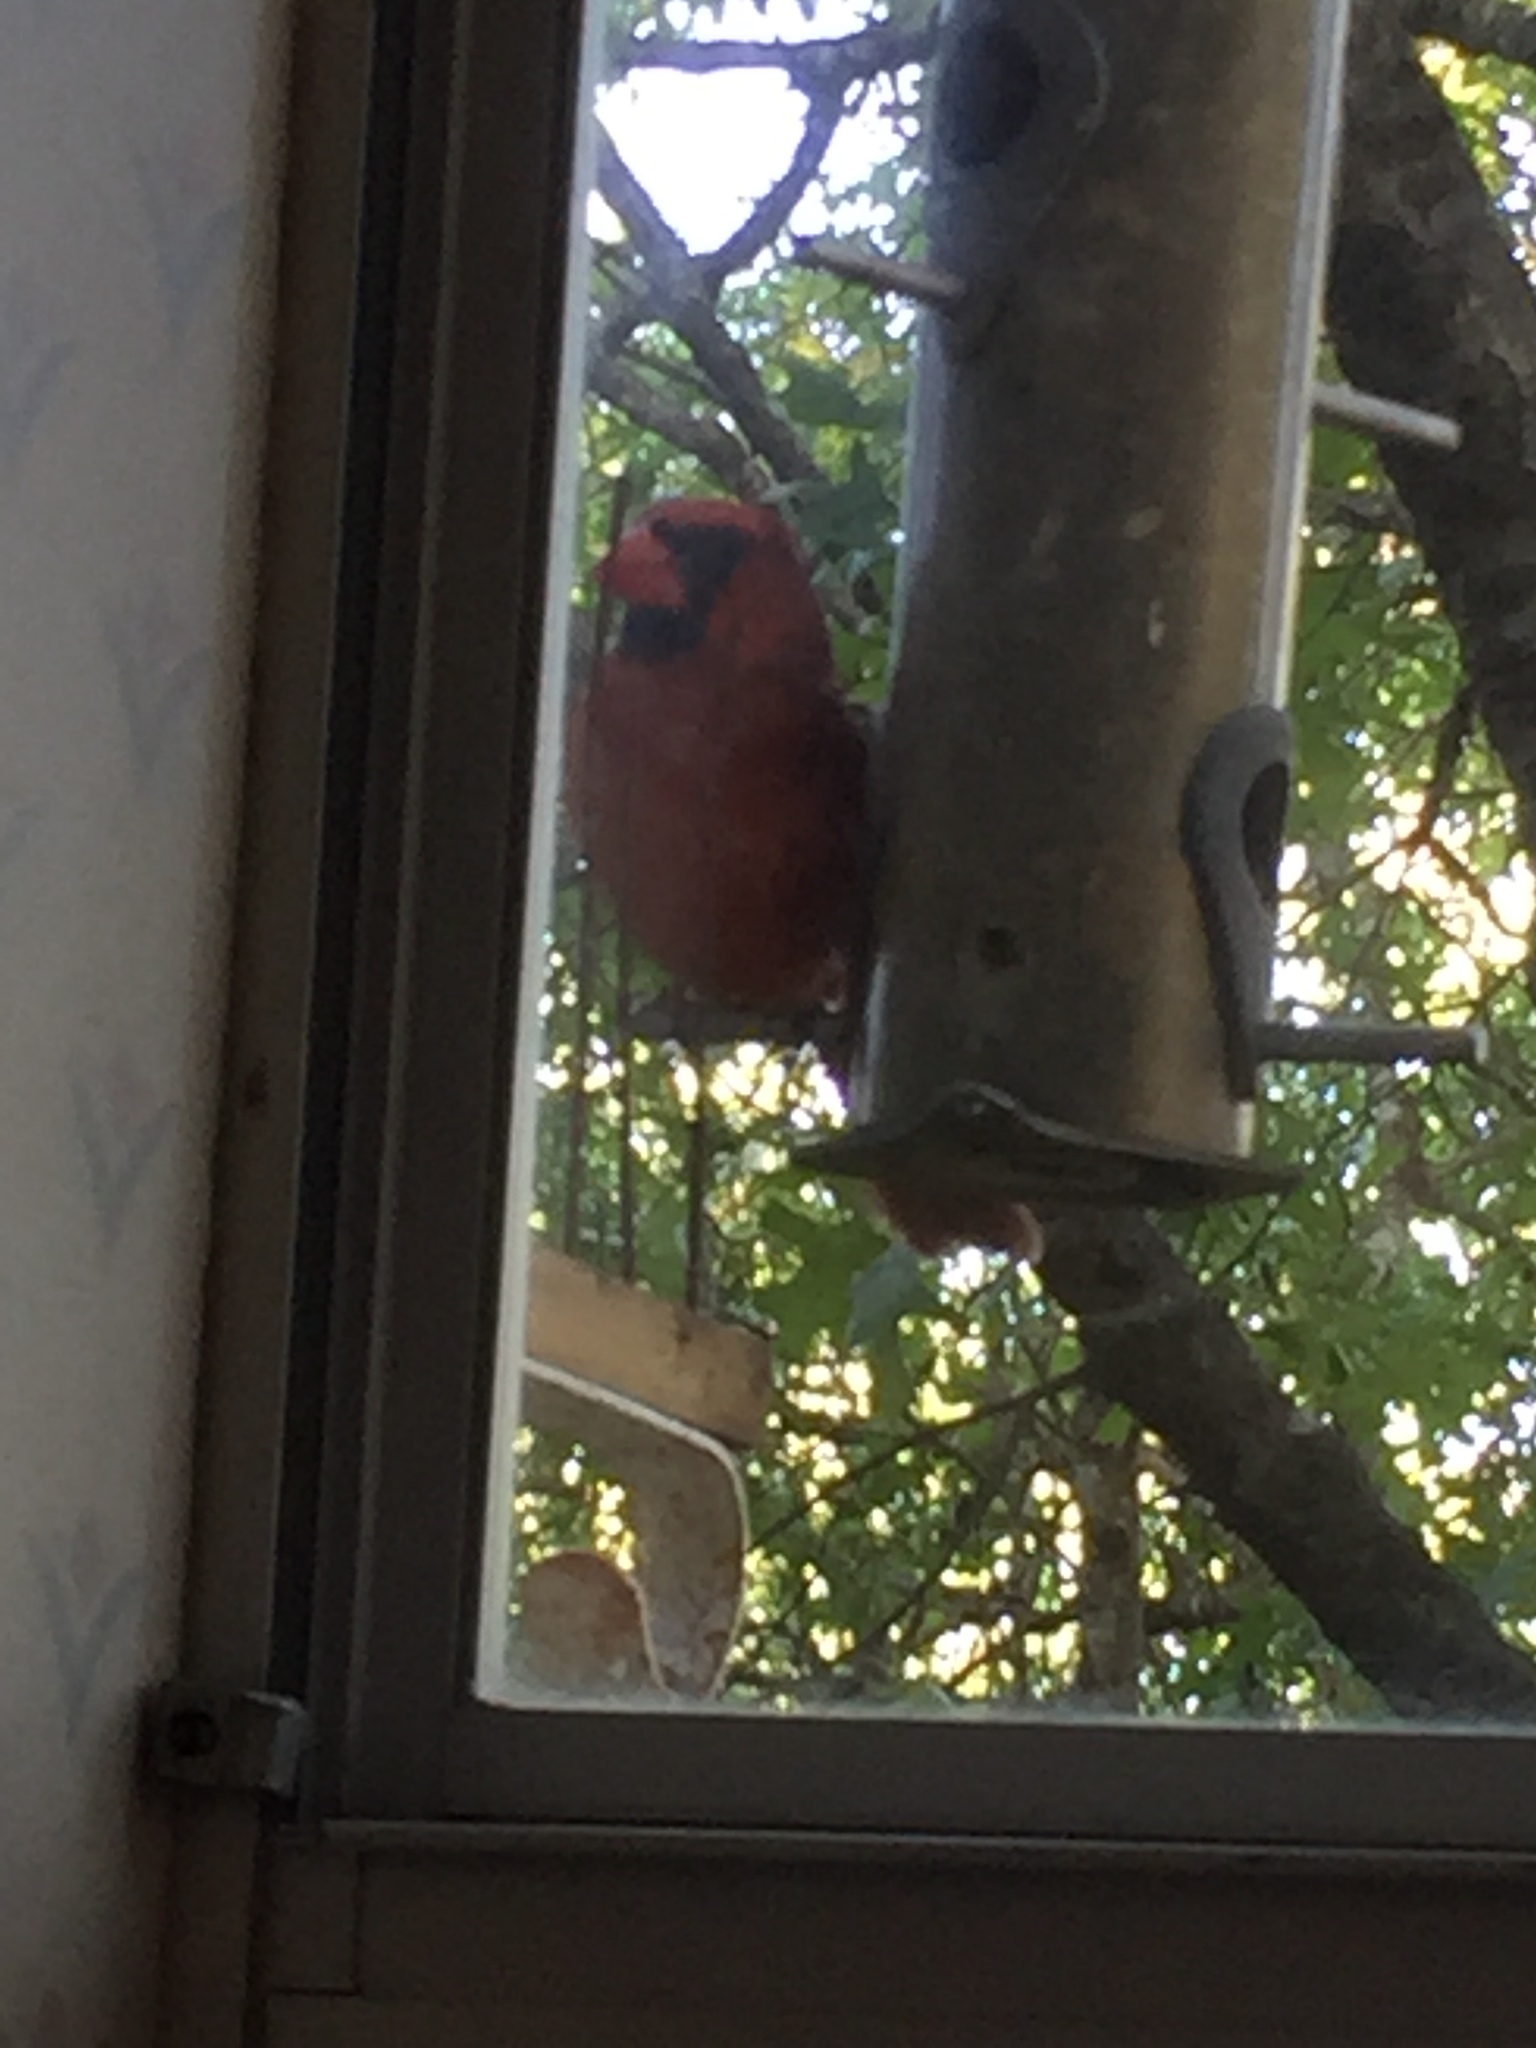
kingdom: Animalia
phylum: Chordata
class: Aves
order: Passeriformes
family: Cardinalidae
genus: Cardinalis
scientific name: Cardinalis cardinalis
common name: Northern cardinal
